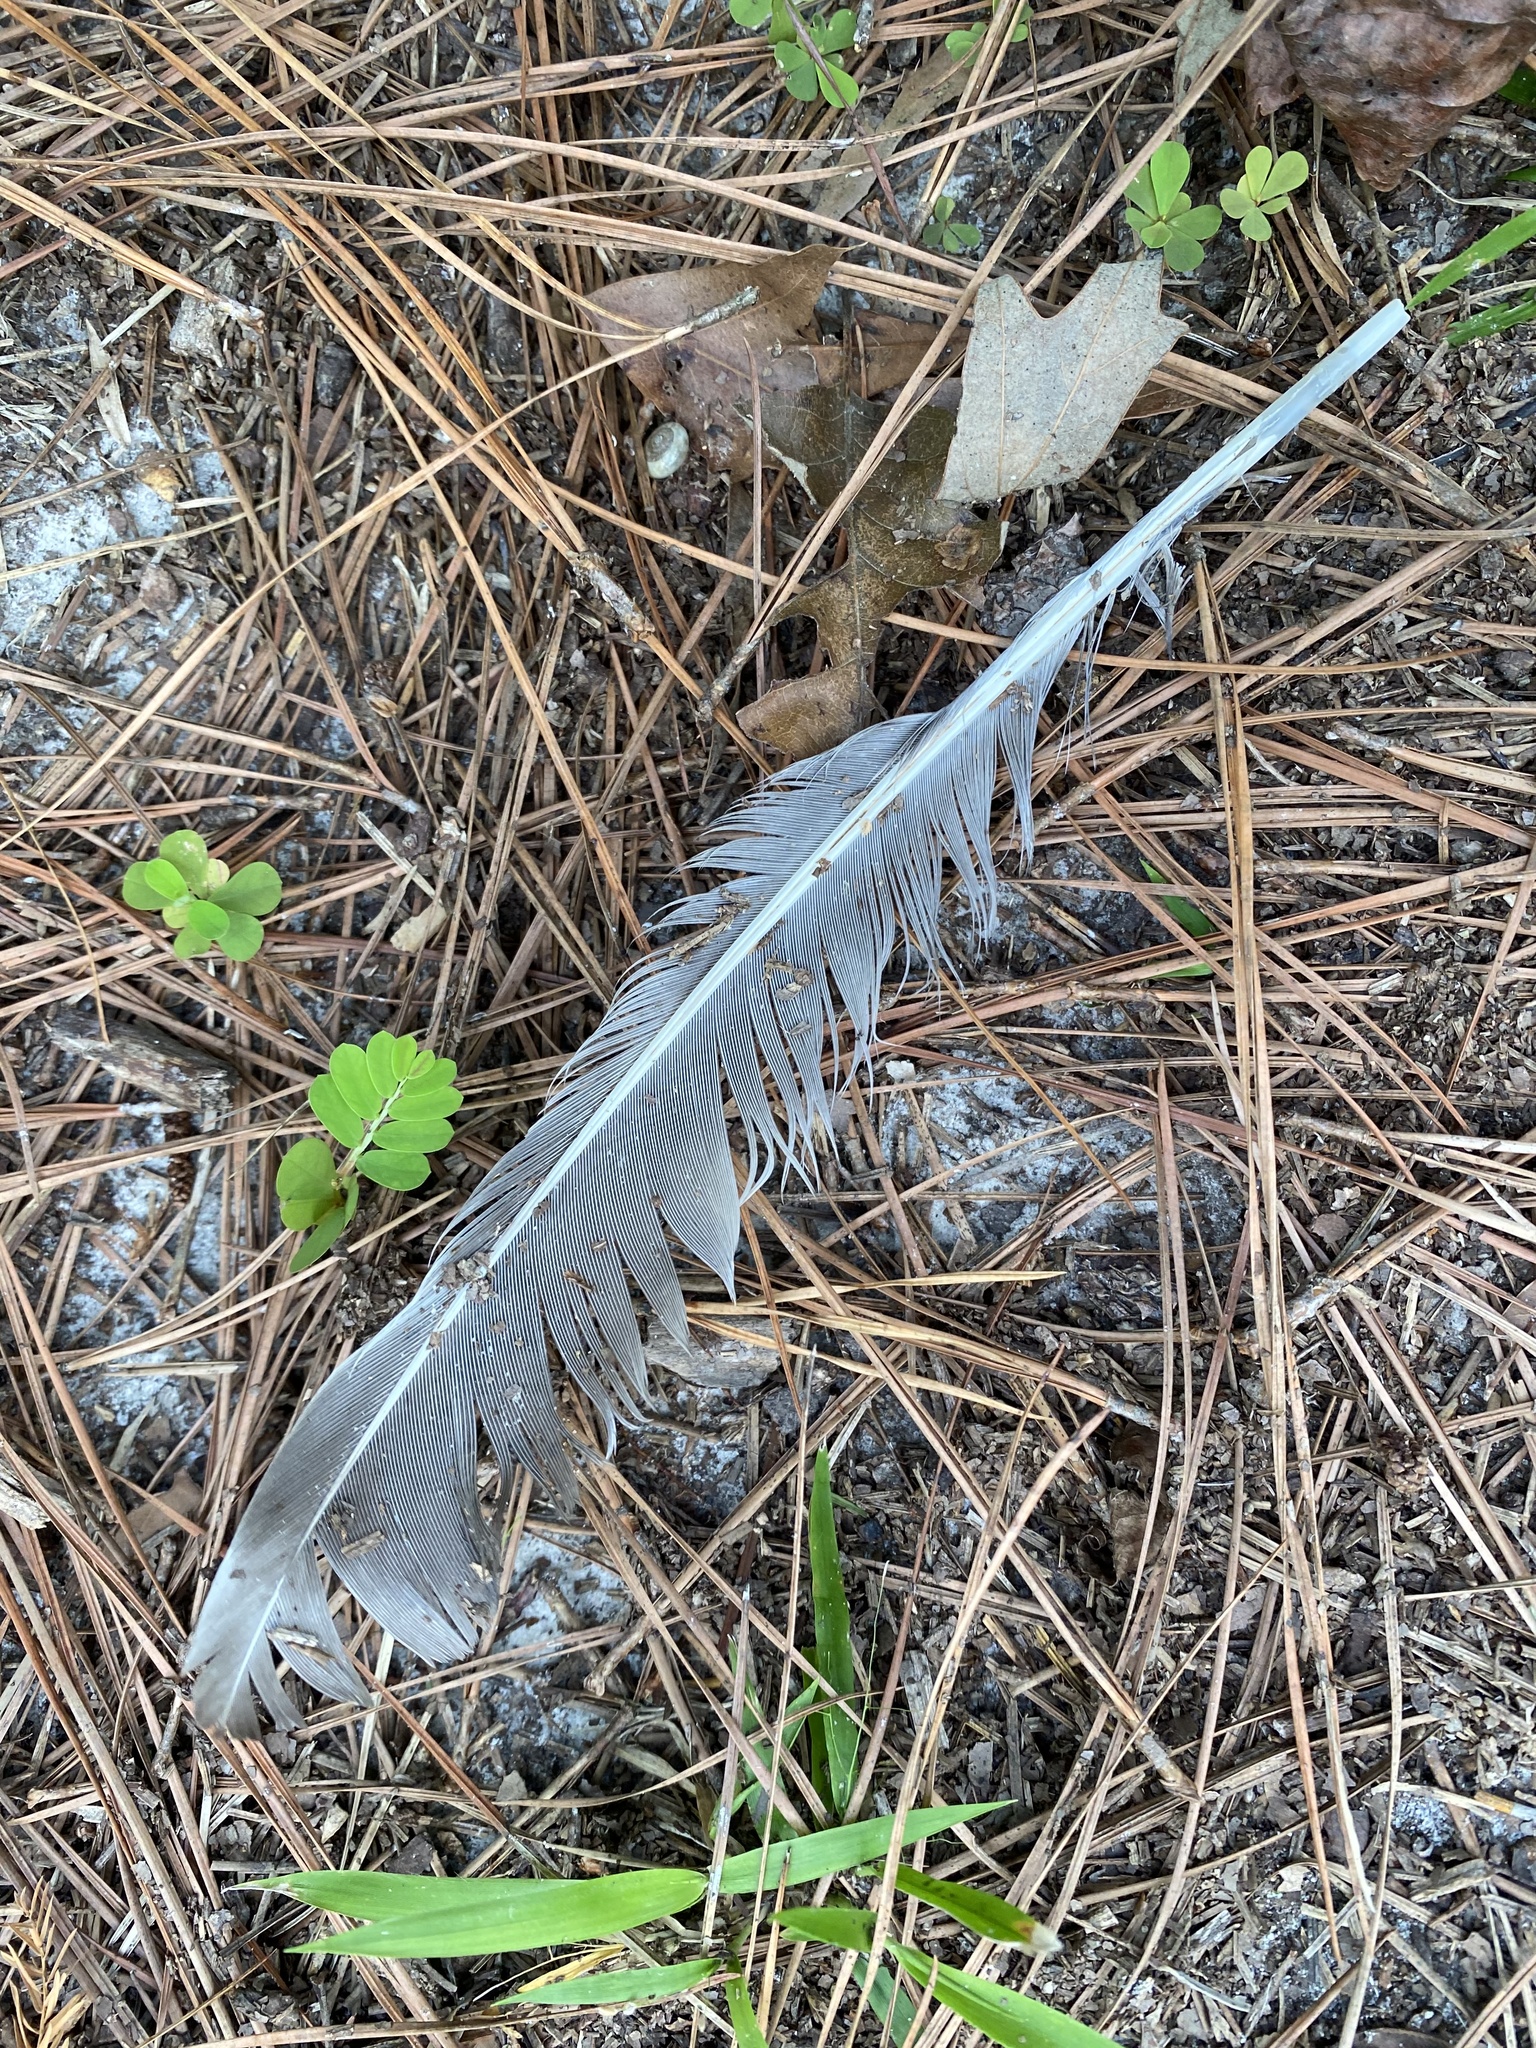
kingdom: Animalia
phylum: Chordata
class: Aves
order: Galliformes
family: Phasianidae
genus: Meleagris
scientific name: Meleagris gallopavo
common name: Wild turkey
